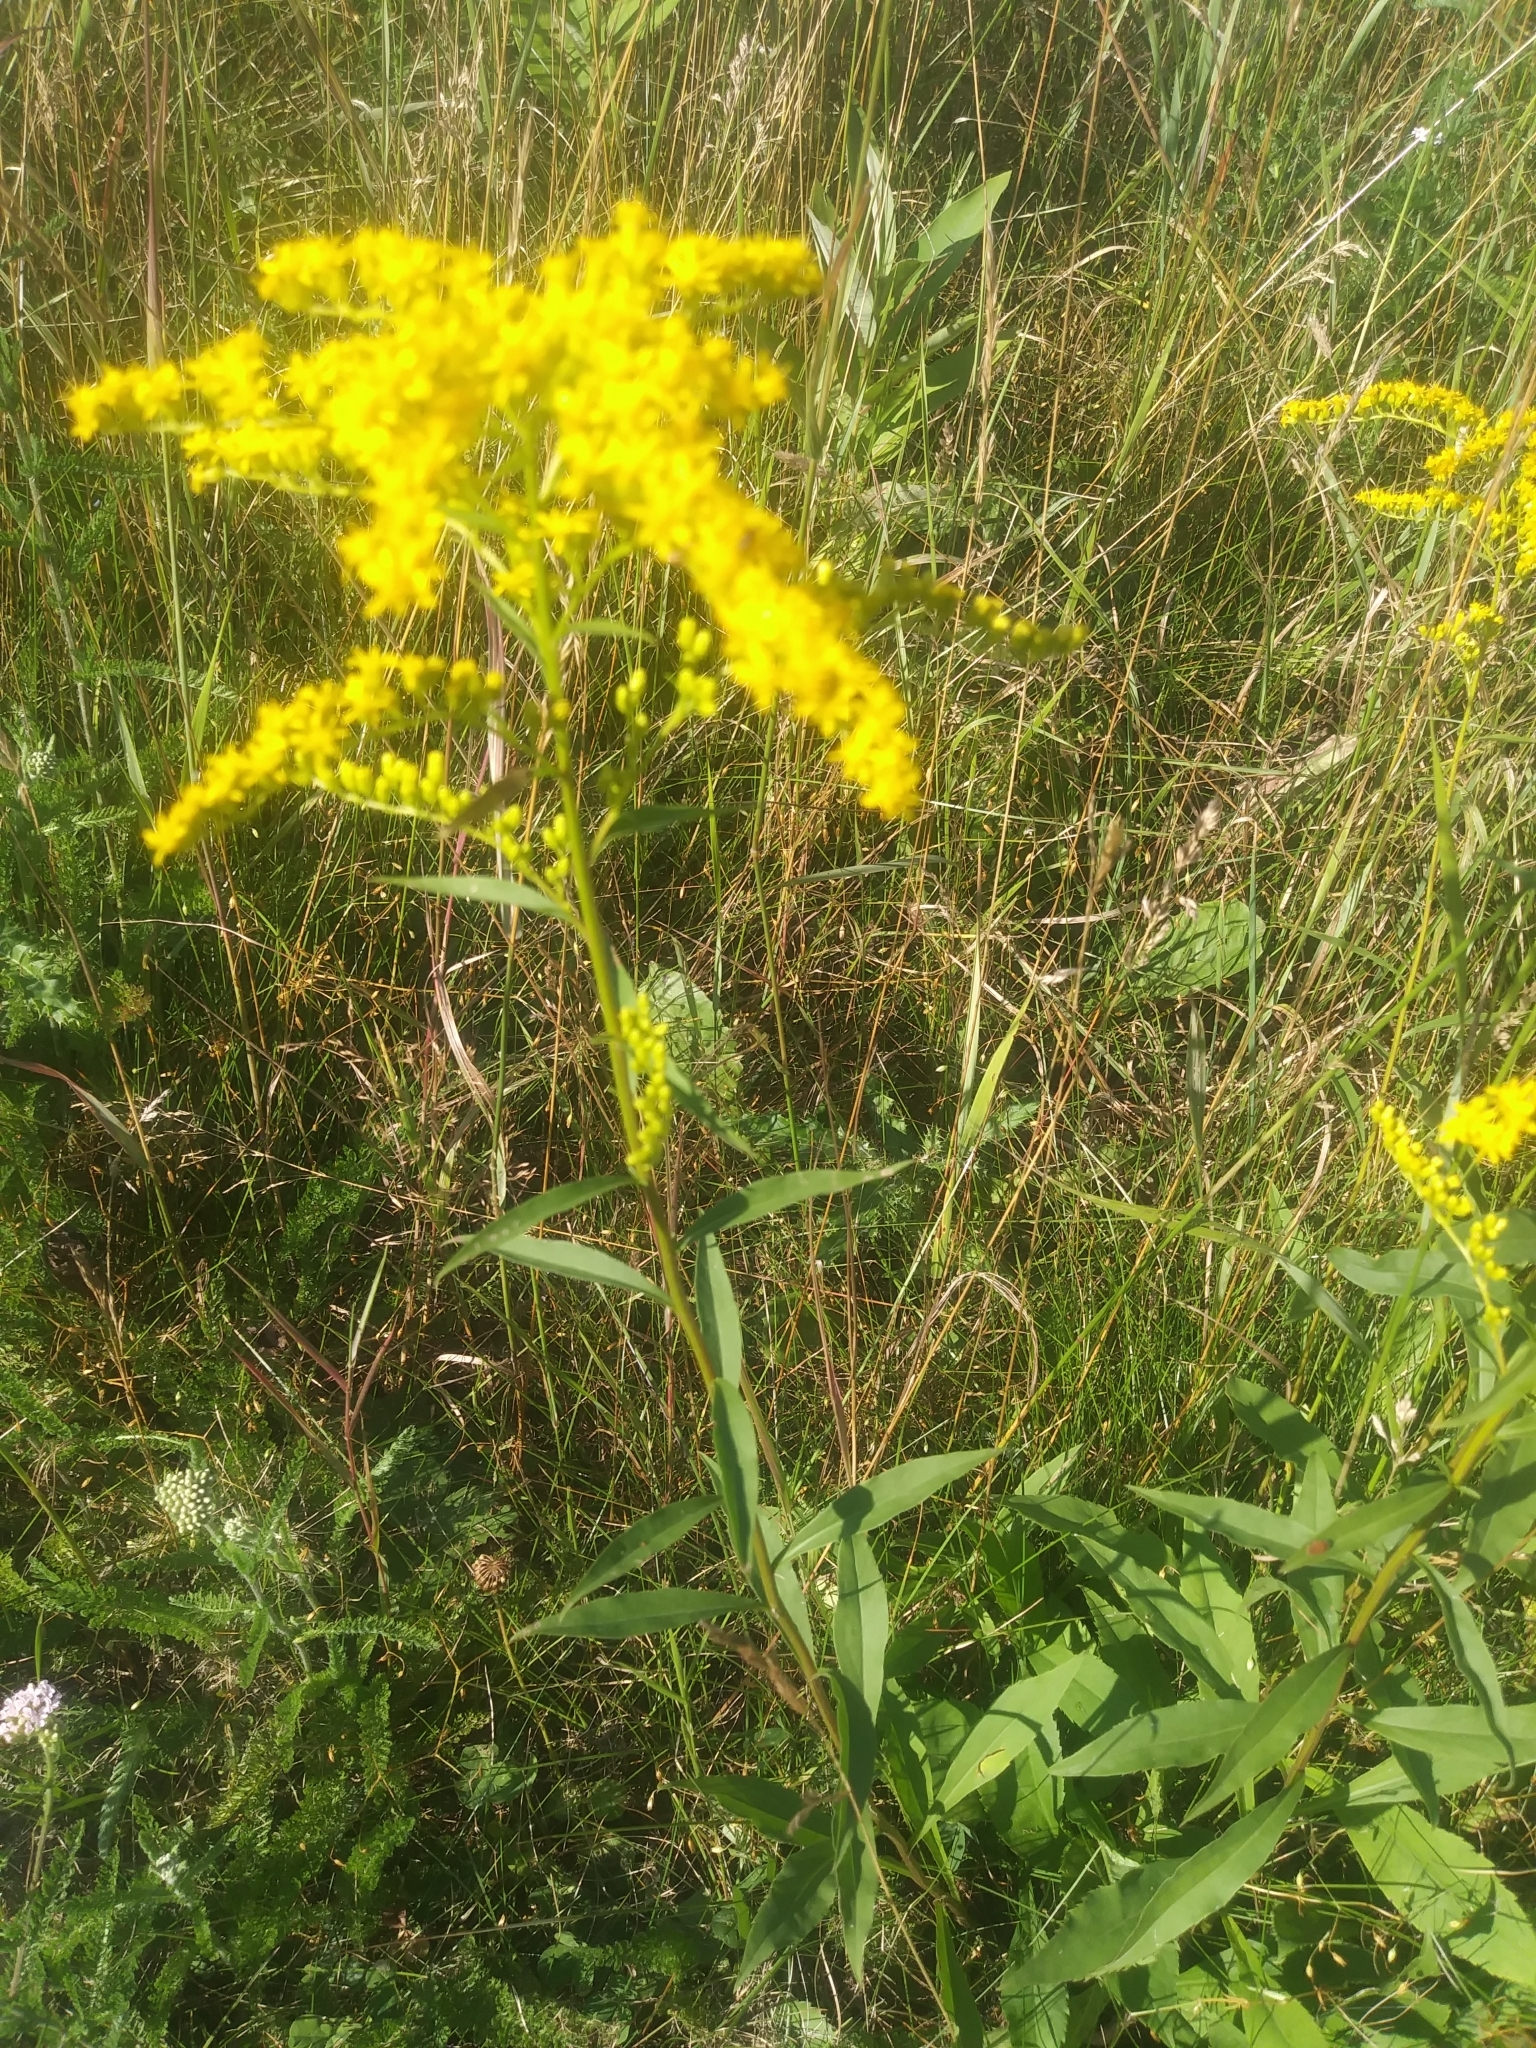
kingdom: Plantae
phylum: Tracheophyta
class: Magnoliopsida
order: Asterales
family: Asteraceae
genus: Solidago
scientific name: Solidago juncea
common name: Early goldenrod
